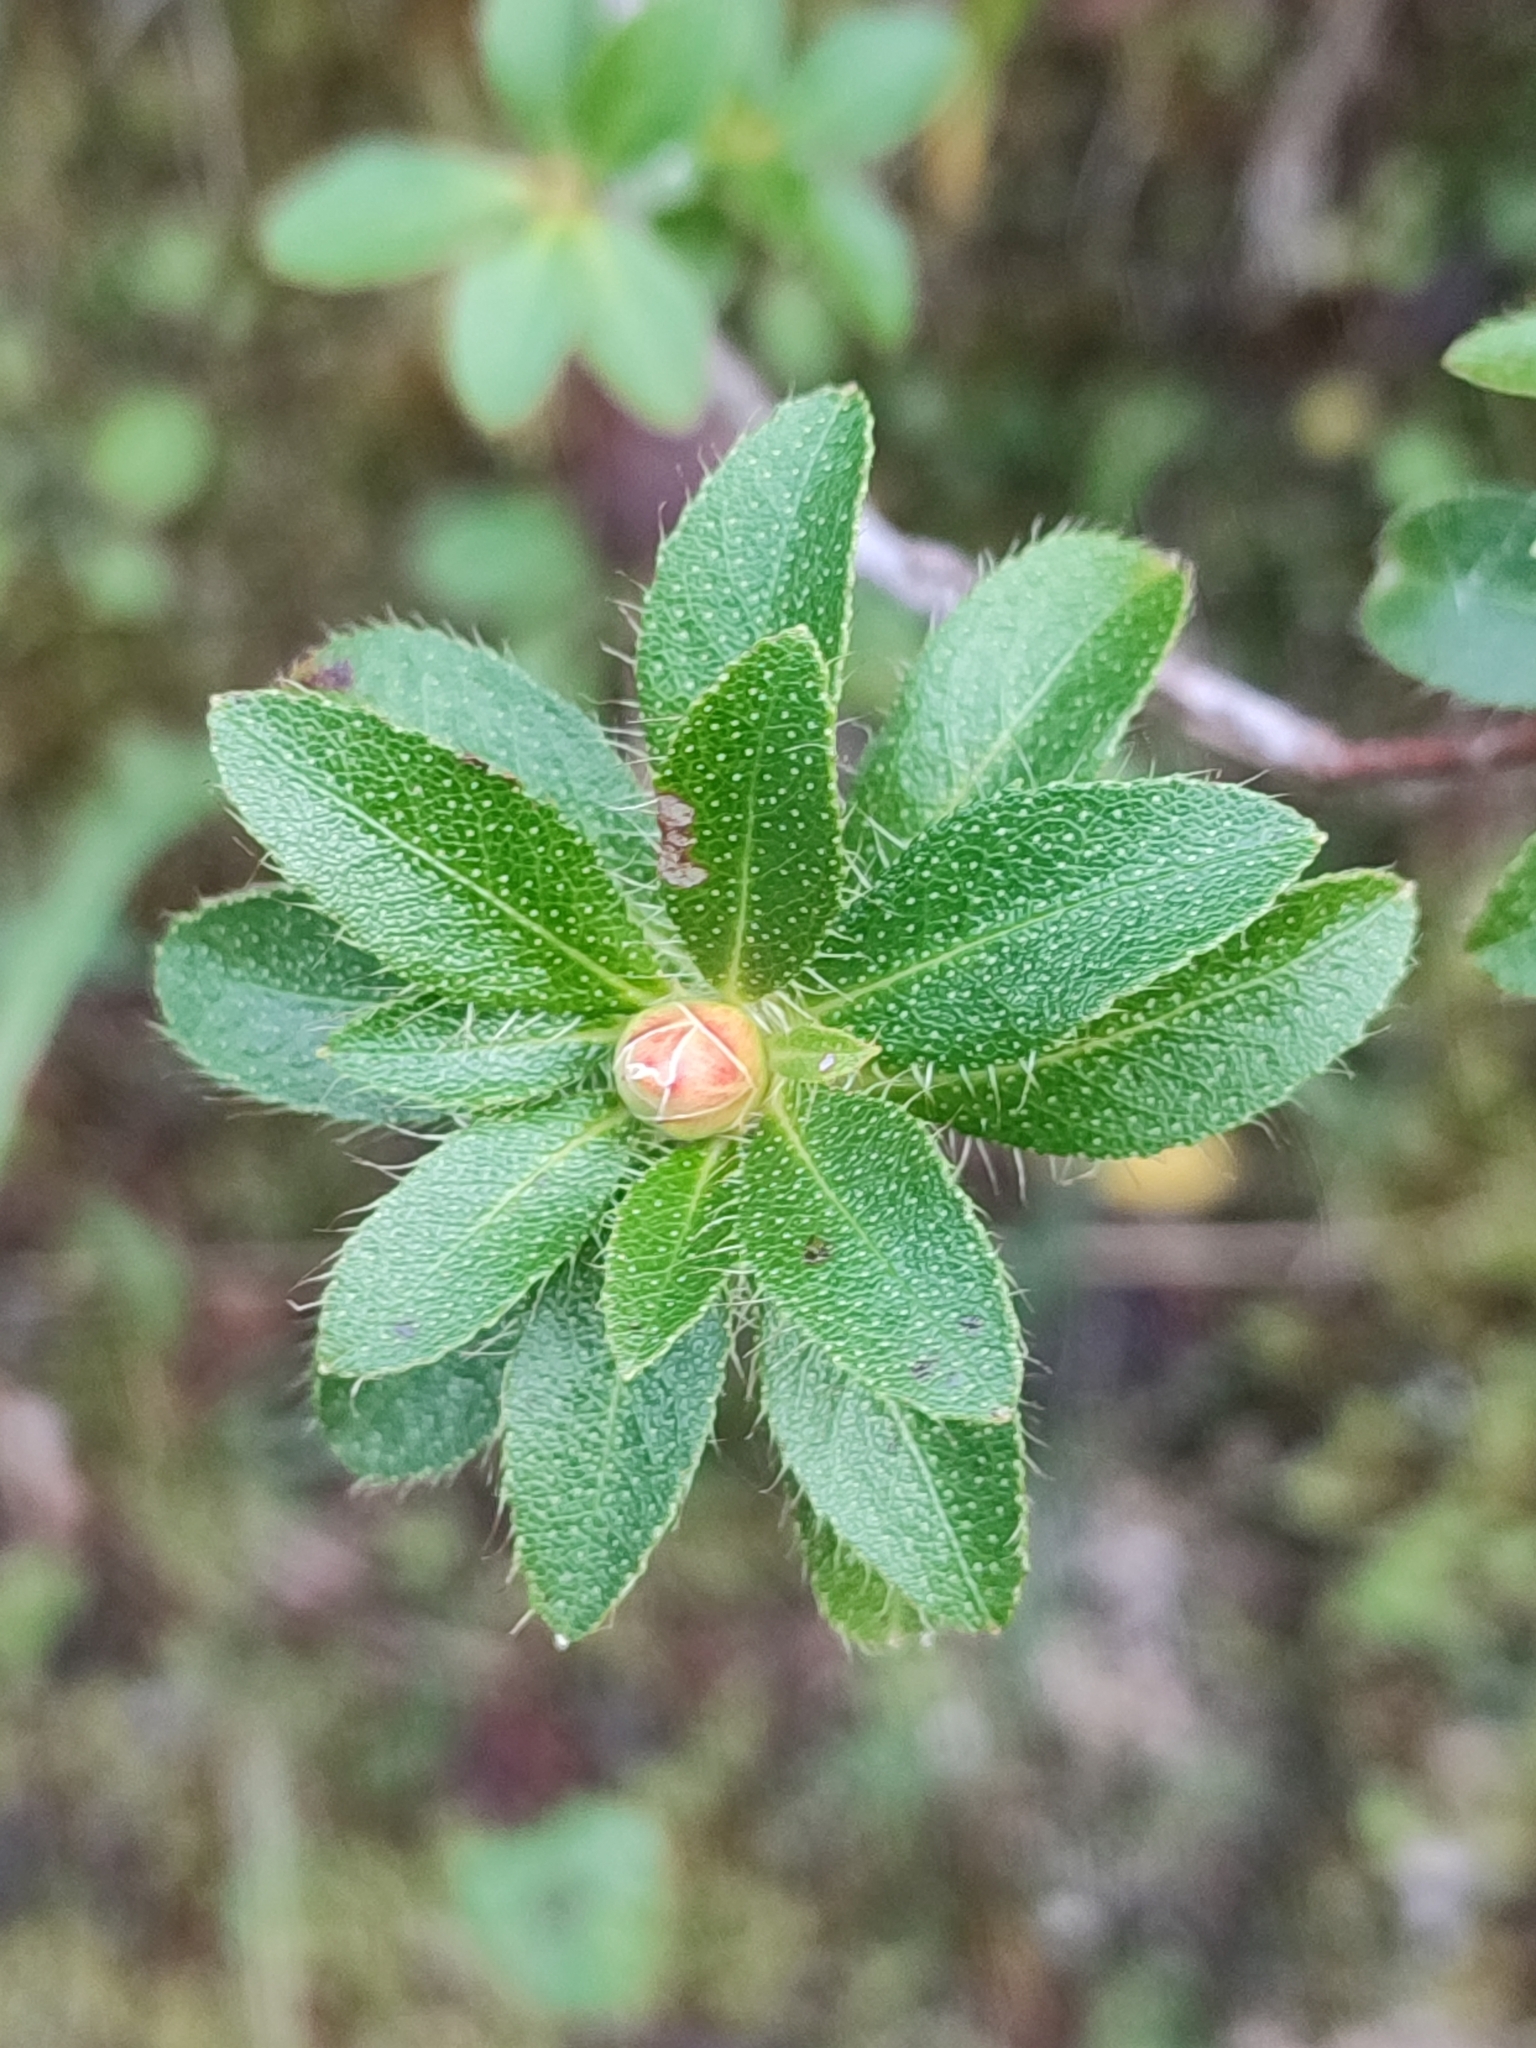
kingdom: Plantae
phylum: Tracheophyta
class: Magnoliopsida
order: Ericales
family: Ericaceae
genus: Rhododendron
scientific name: Rhododendron hirsutum
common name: Hairy alpenrose
